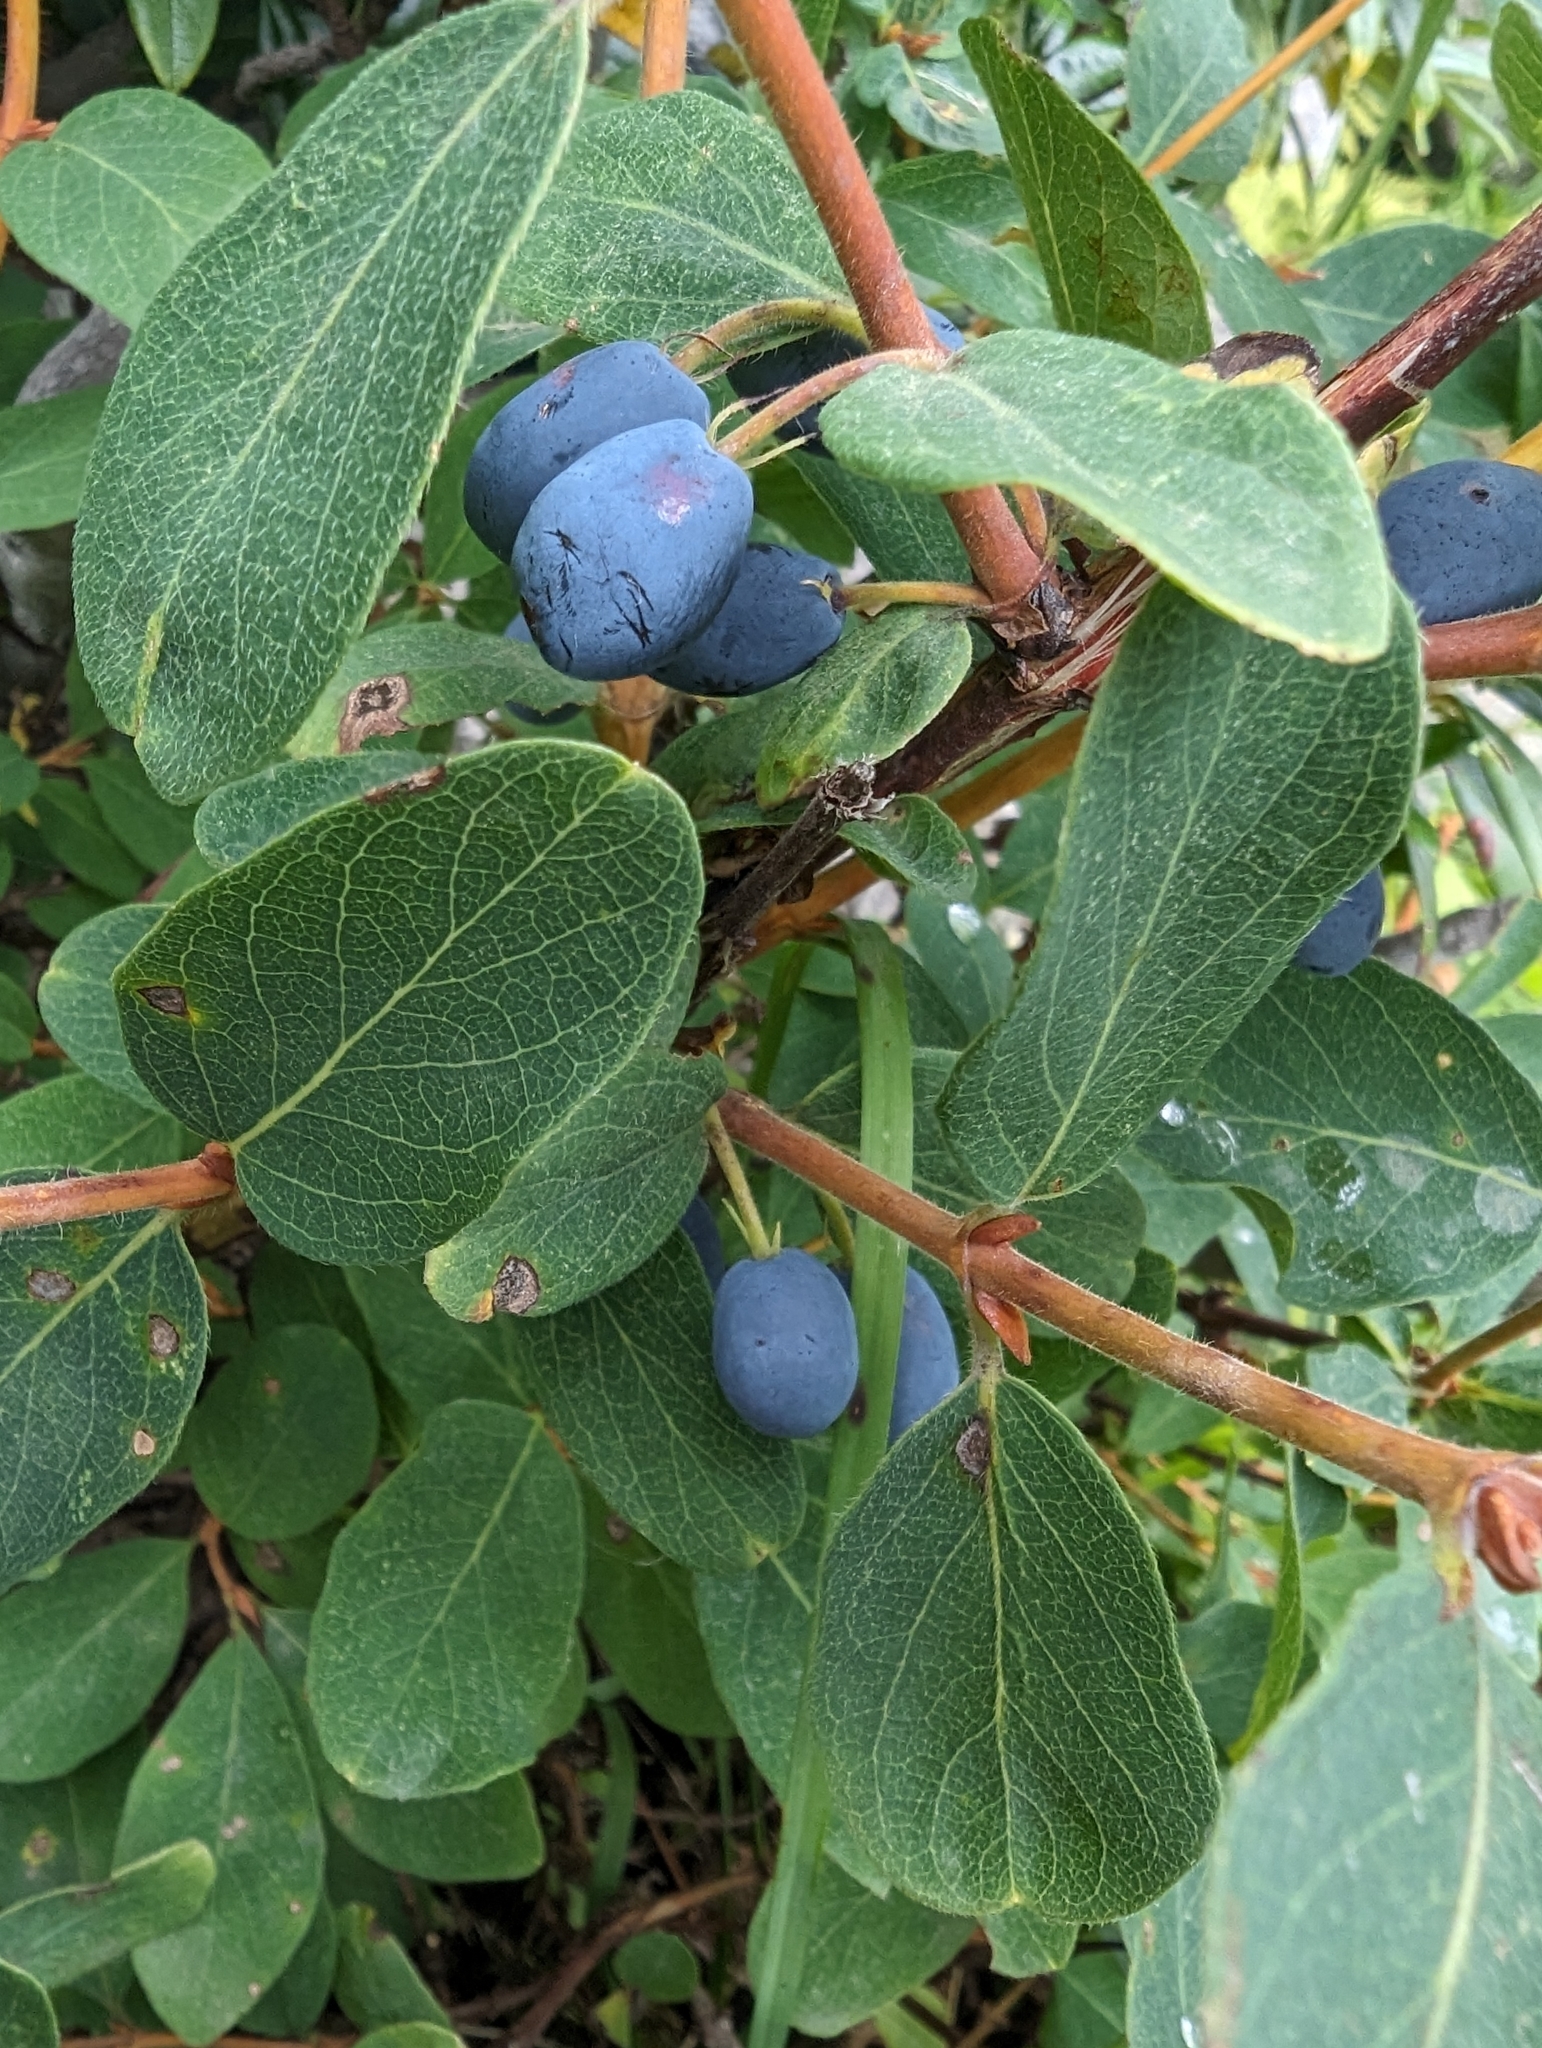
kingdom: Plantae
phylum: Tracheophyta
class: Magnoliopsida
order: Dipsacales
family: Caprifoliaceae
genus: Lonicera
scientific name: Lonicera caerulea
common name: Blue honeysuckle
